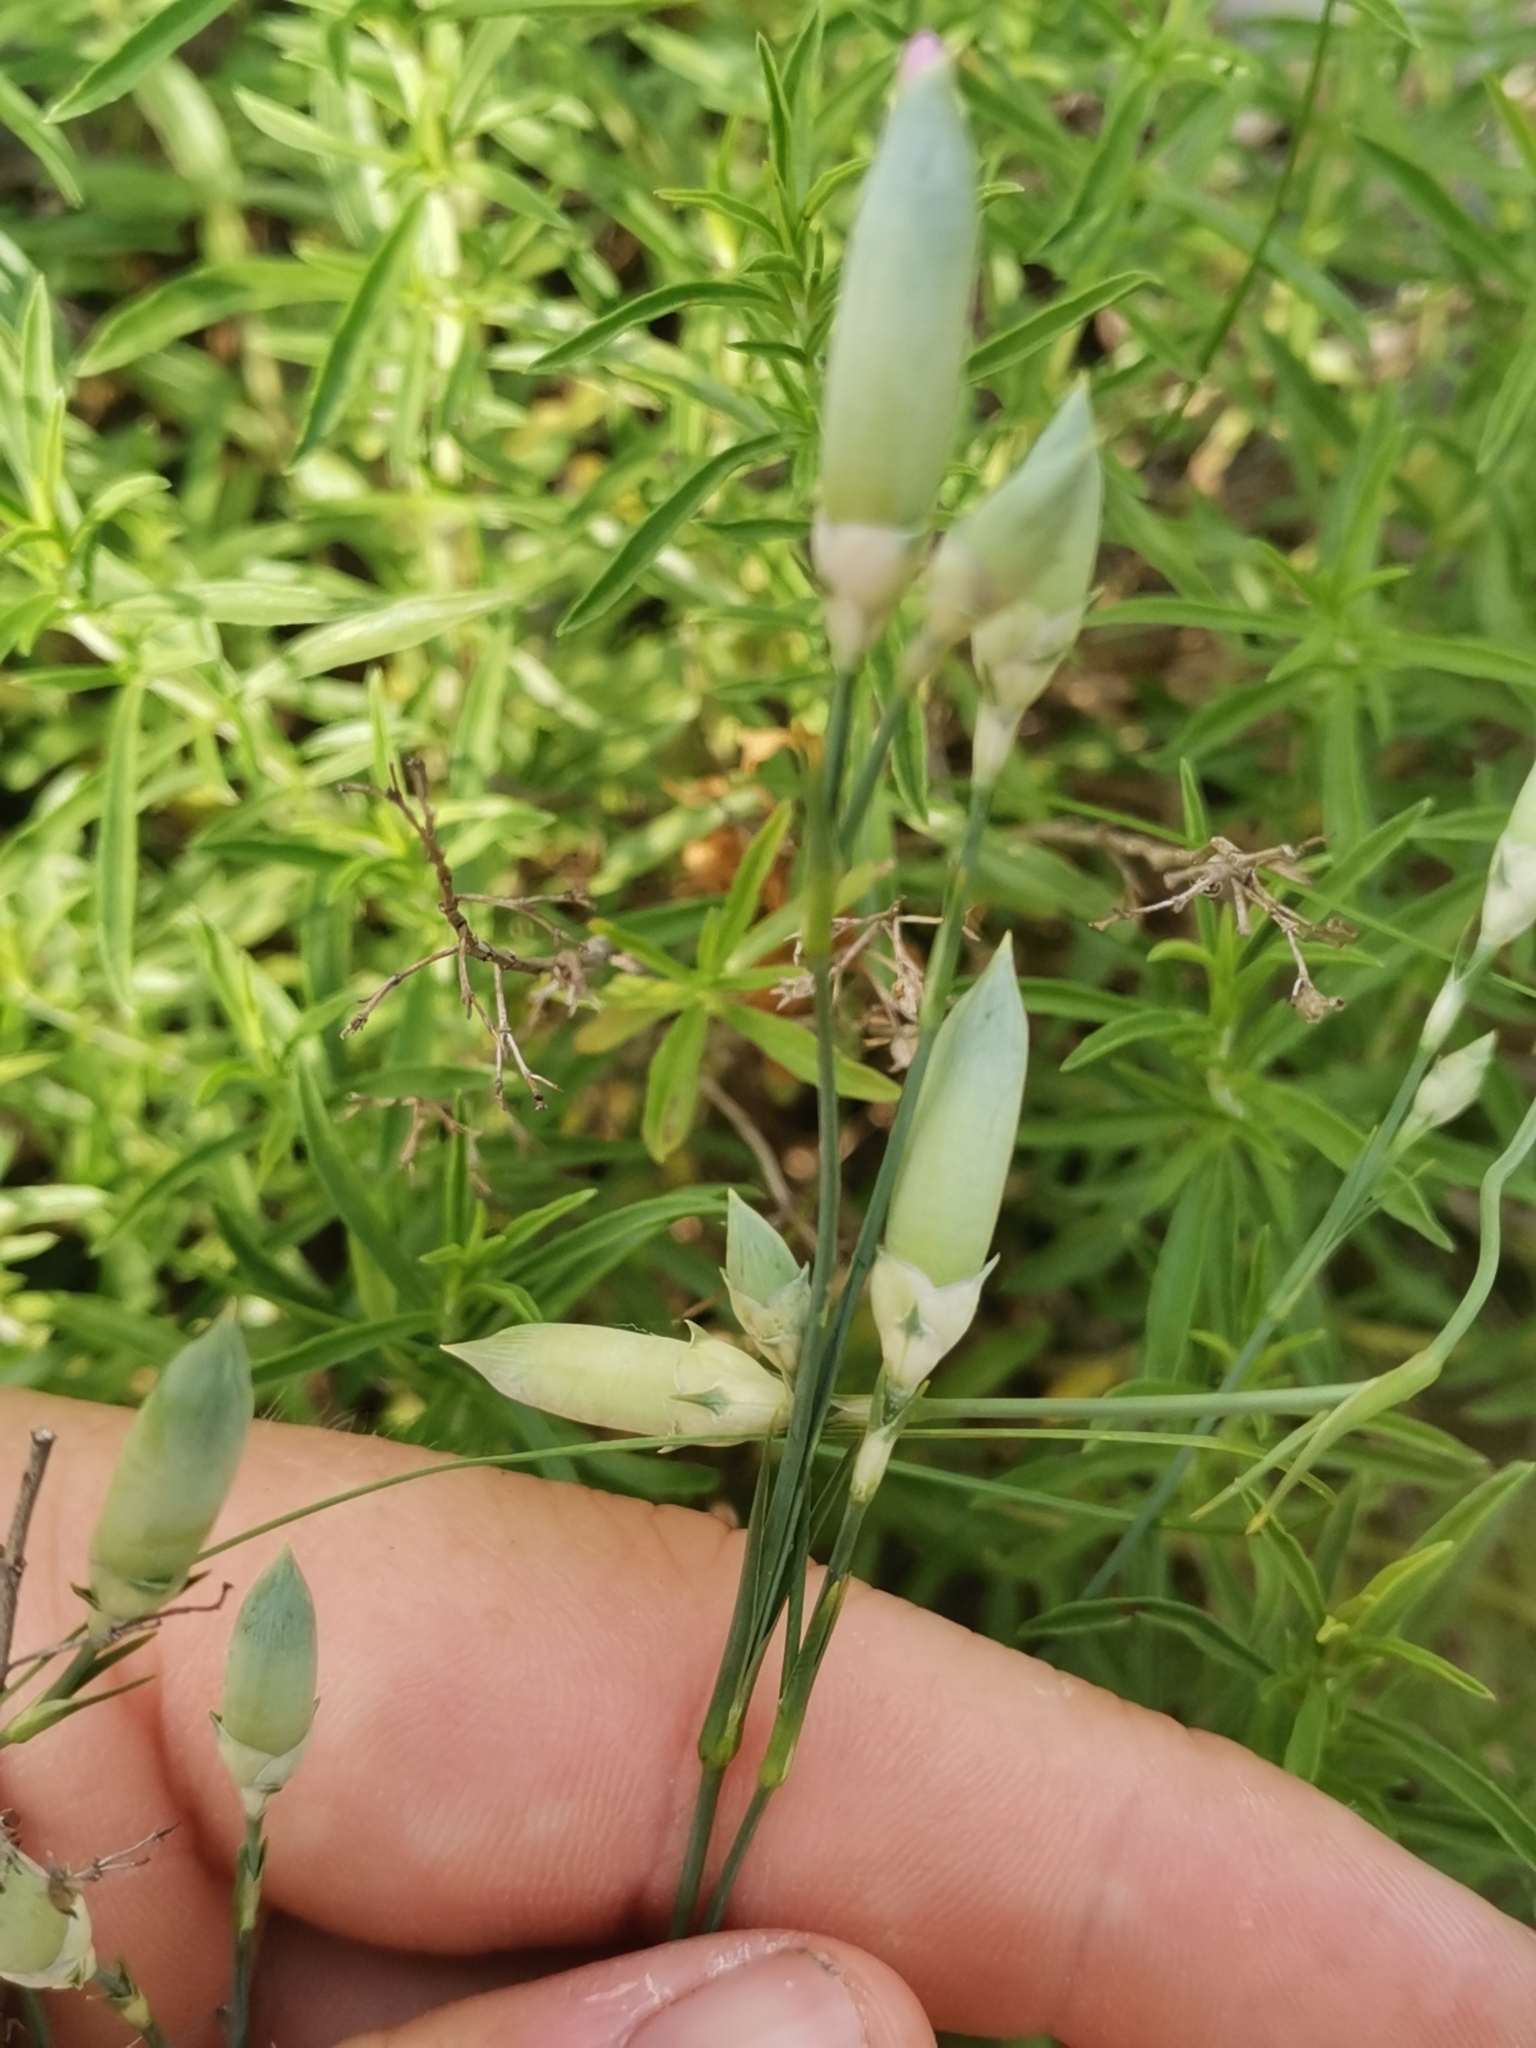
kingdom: Plantae
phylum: Tracheophyta
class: Magnoliopsida
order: Caryophyllales
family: Caryophyllaceae
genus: Dianthus
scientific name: Dianthus sylvestris
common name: Wood pink
